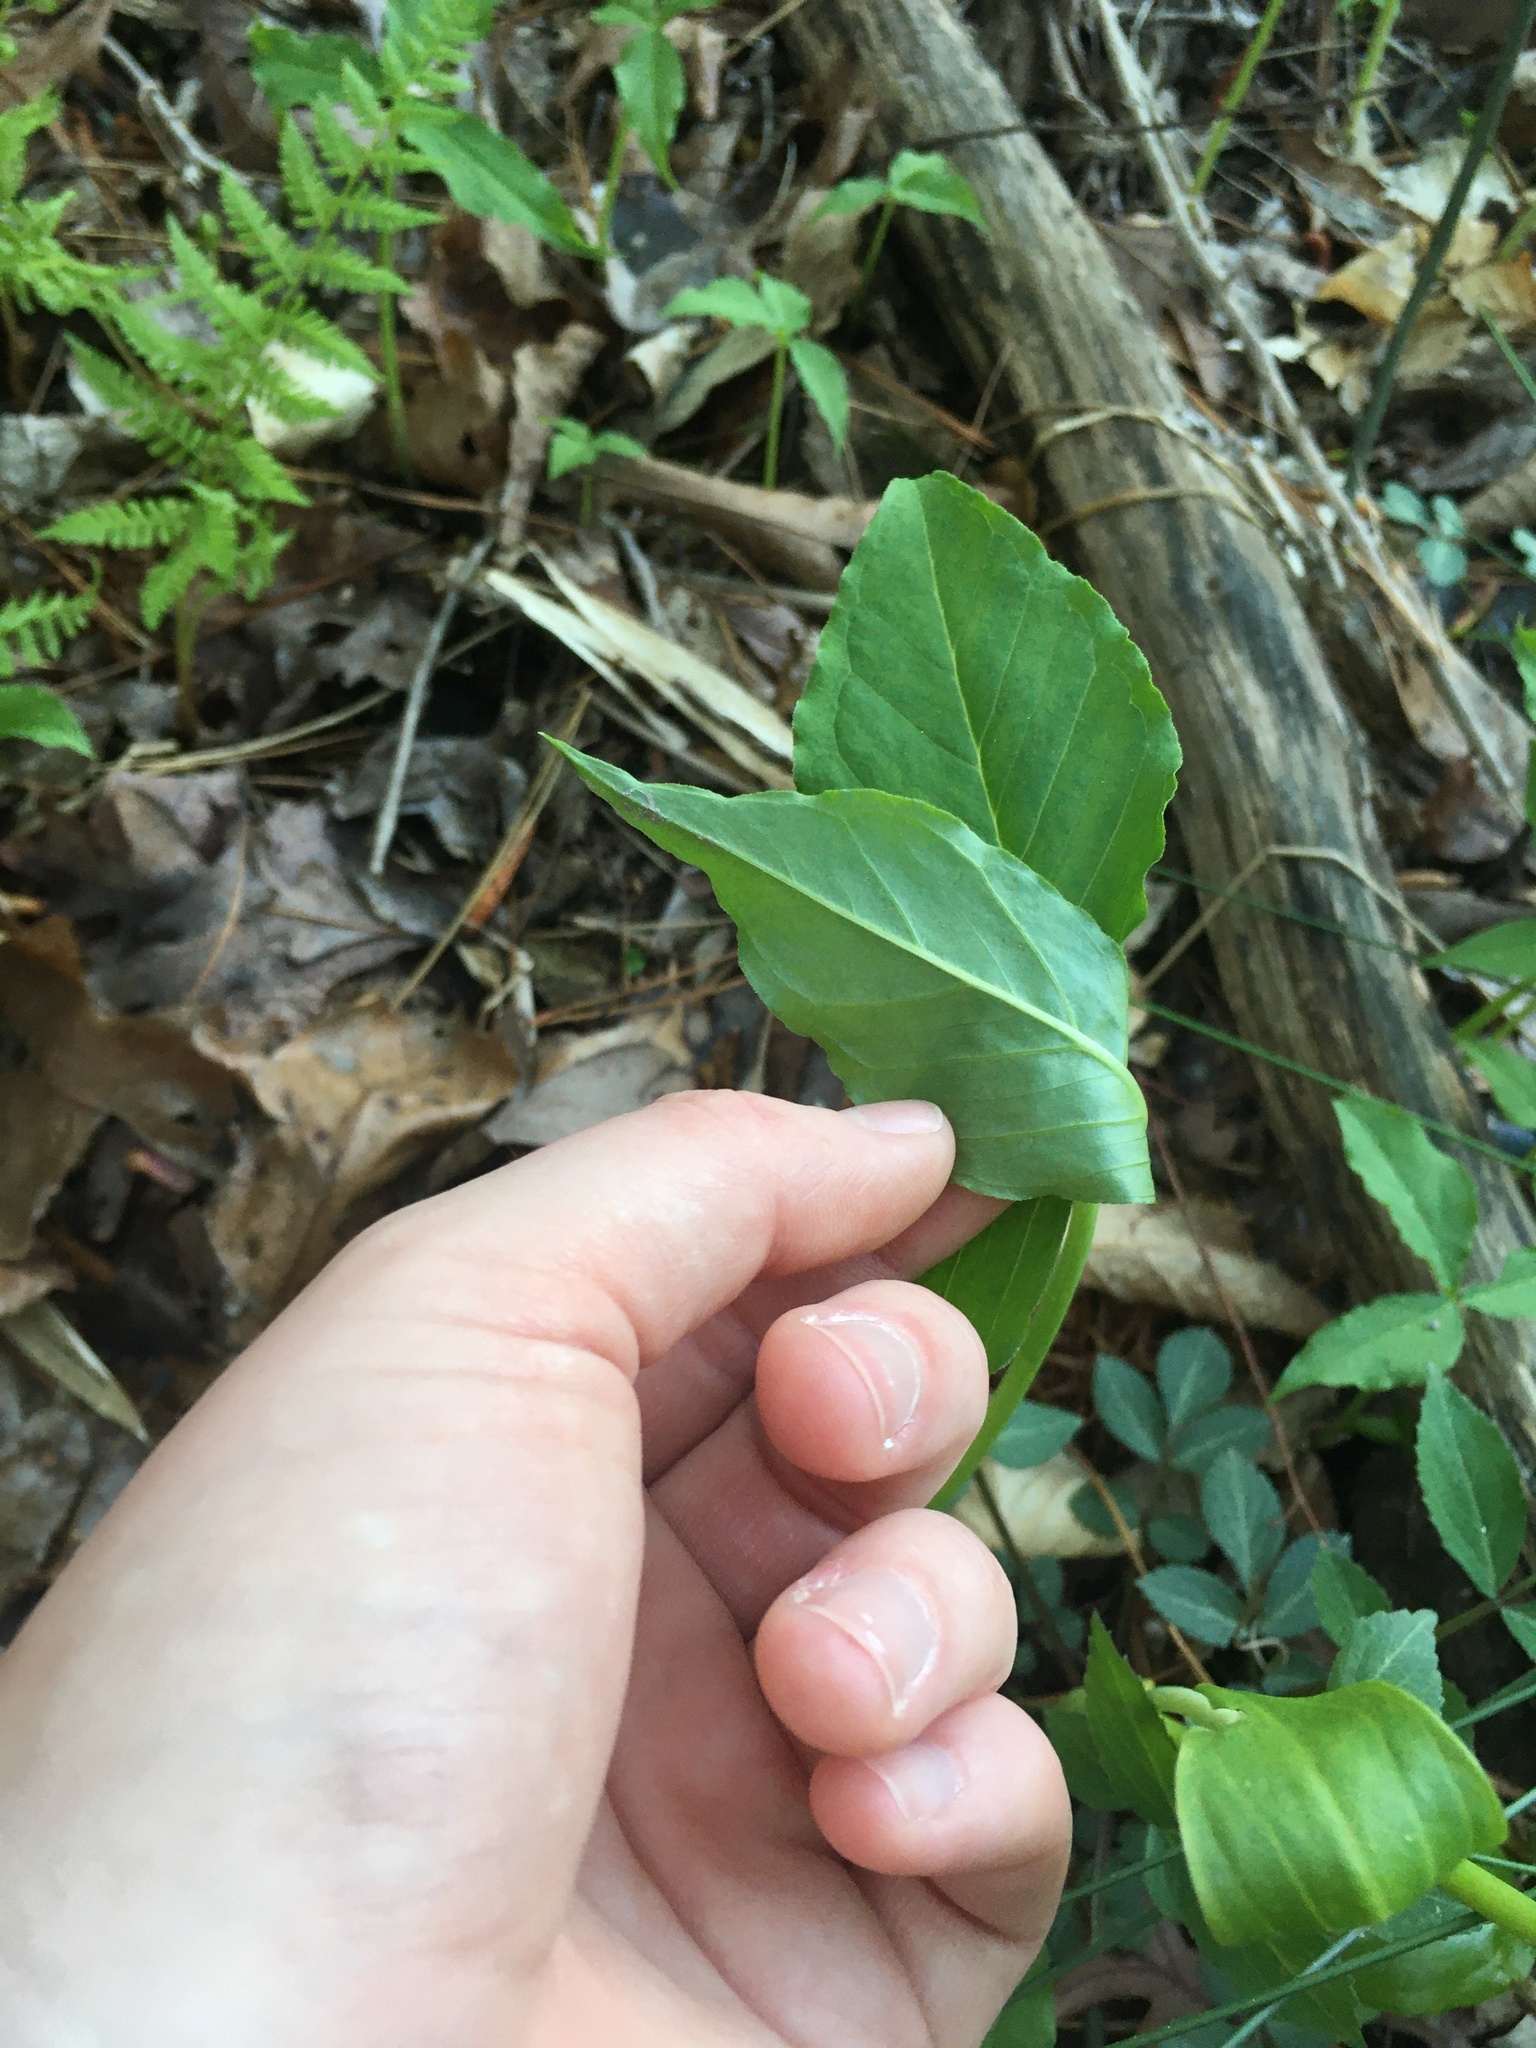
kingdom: Plantae
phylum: Tracheophyta
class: Liliopsida
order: Alismatales
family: Araceae
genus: Arisaema
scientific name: Arisaema pusillum
